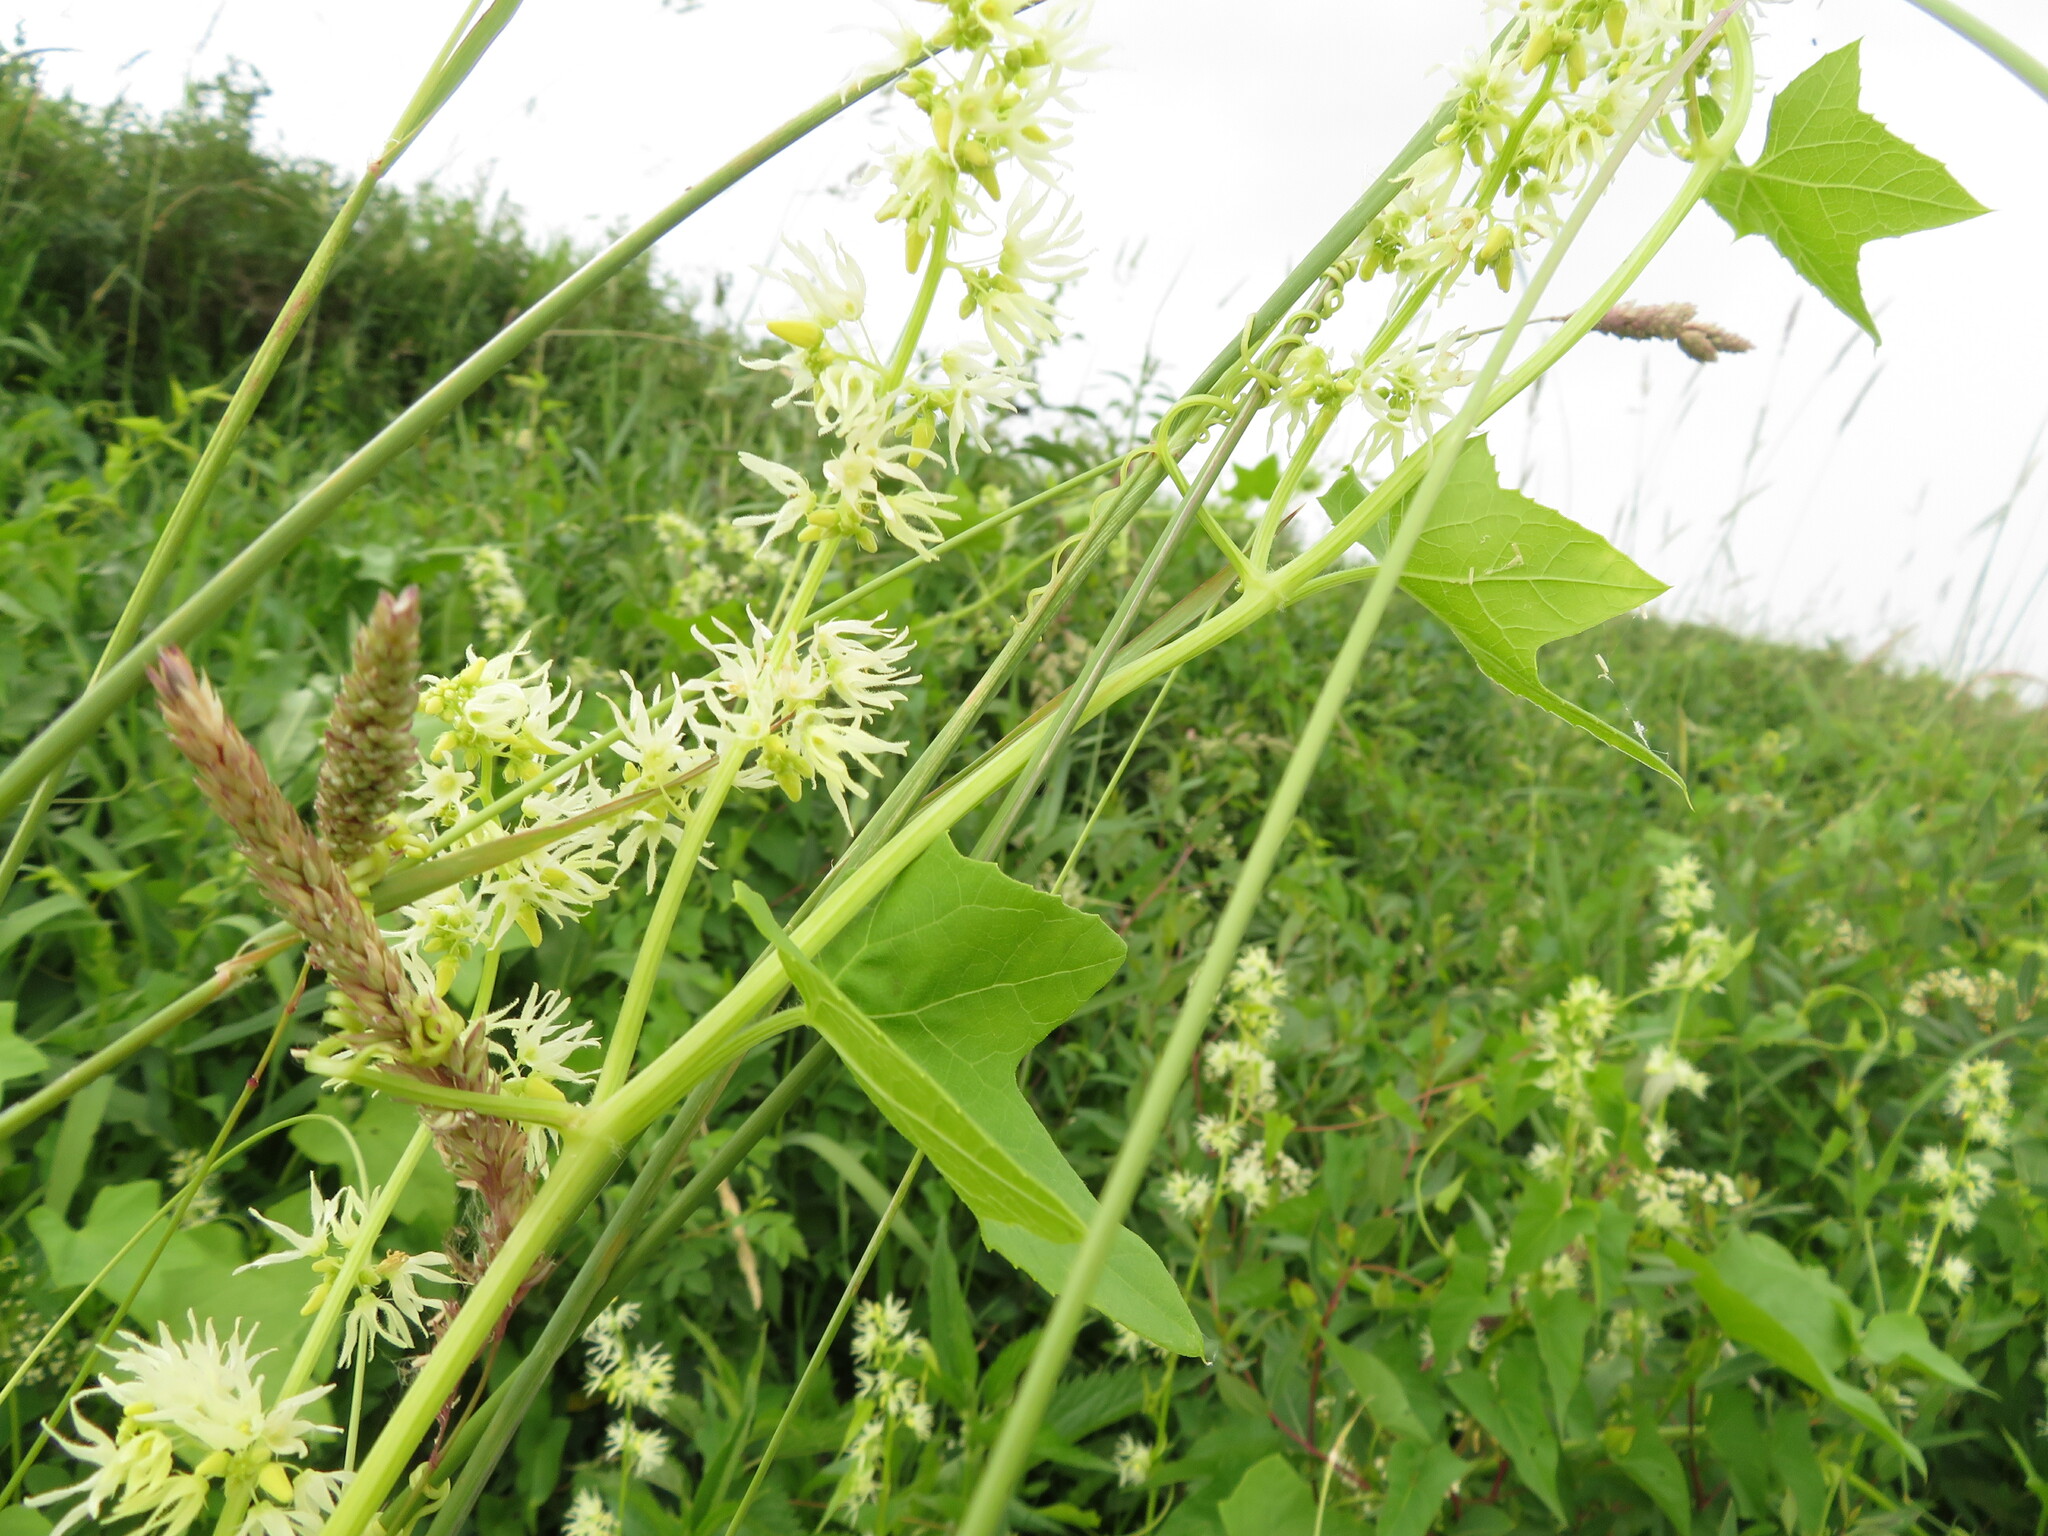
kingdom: Plantae
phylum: Tracheophyta
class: Magnoliopsida
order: Cucurbitales
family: Cucurbitaceae
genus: Echinocystis
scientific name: Echinocystis lobata
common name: Wild cucumber
